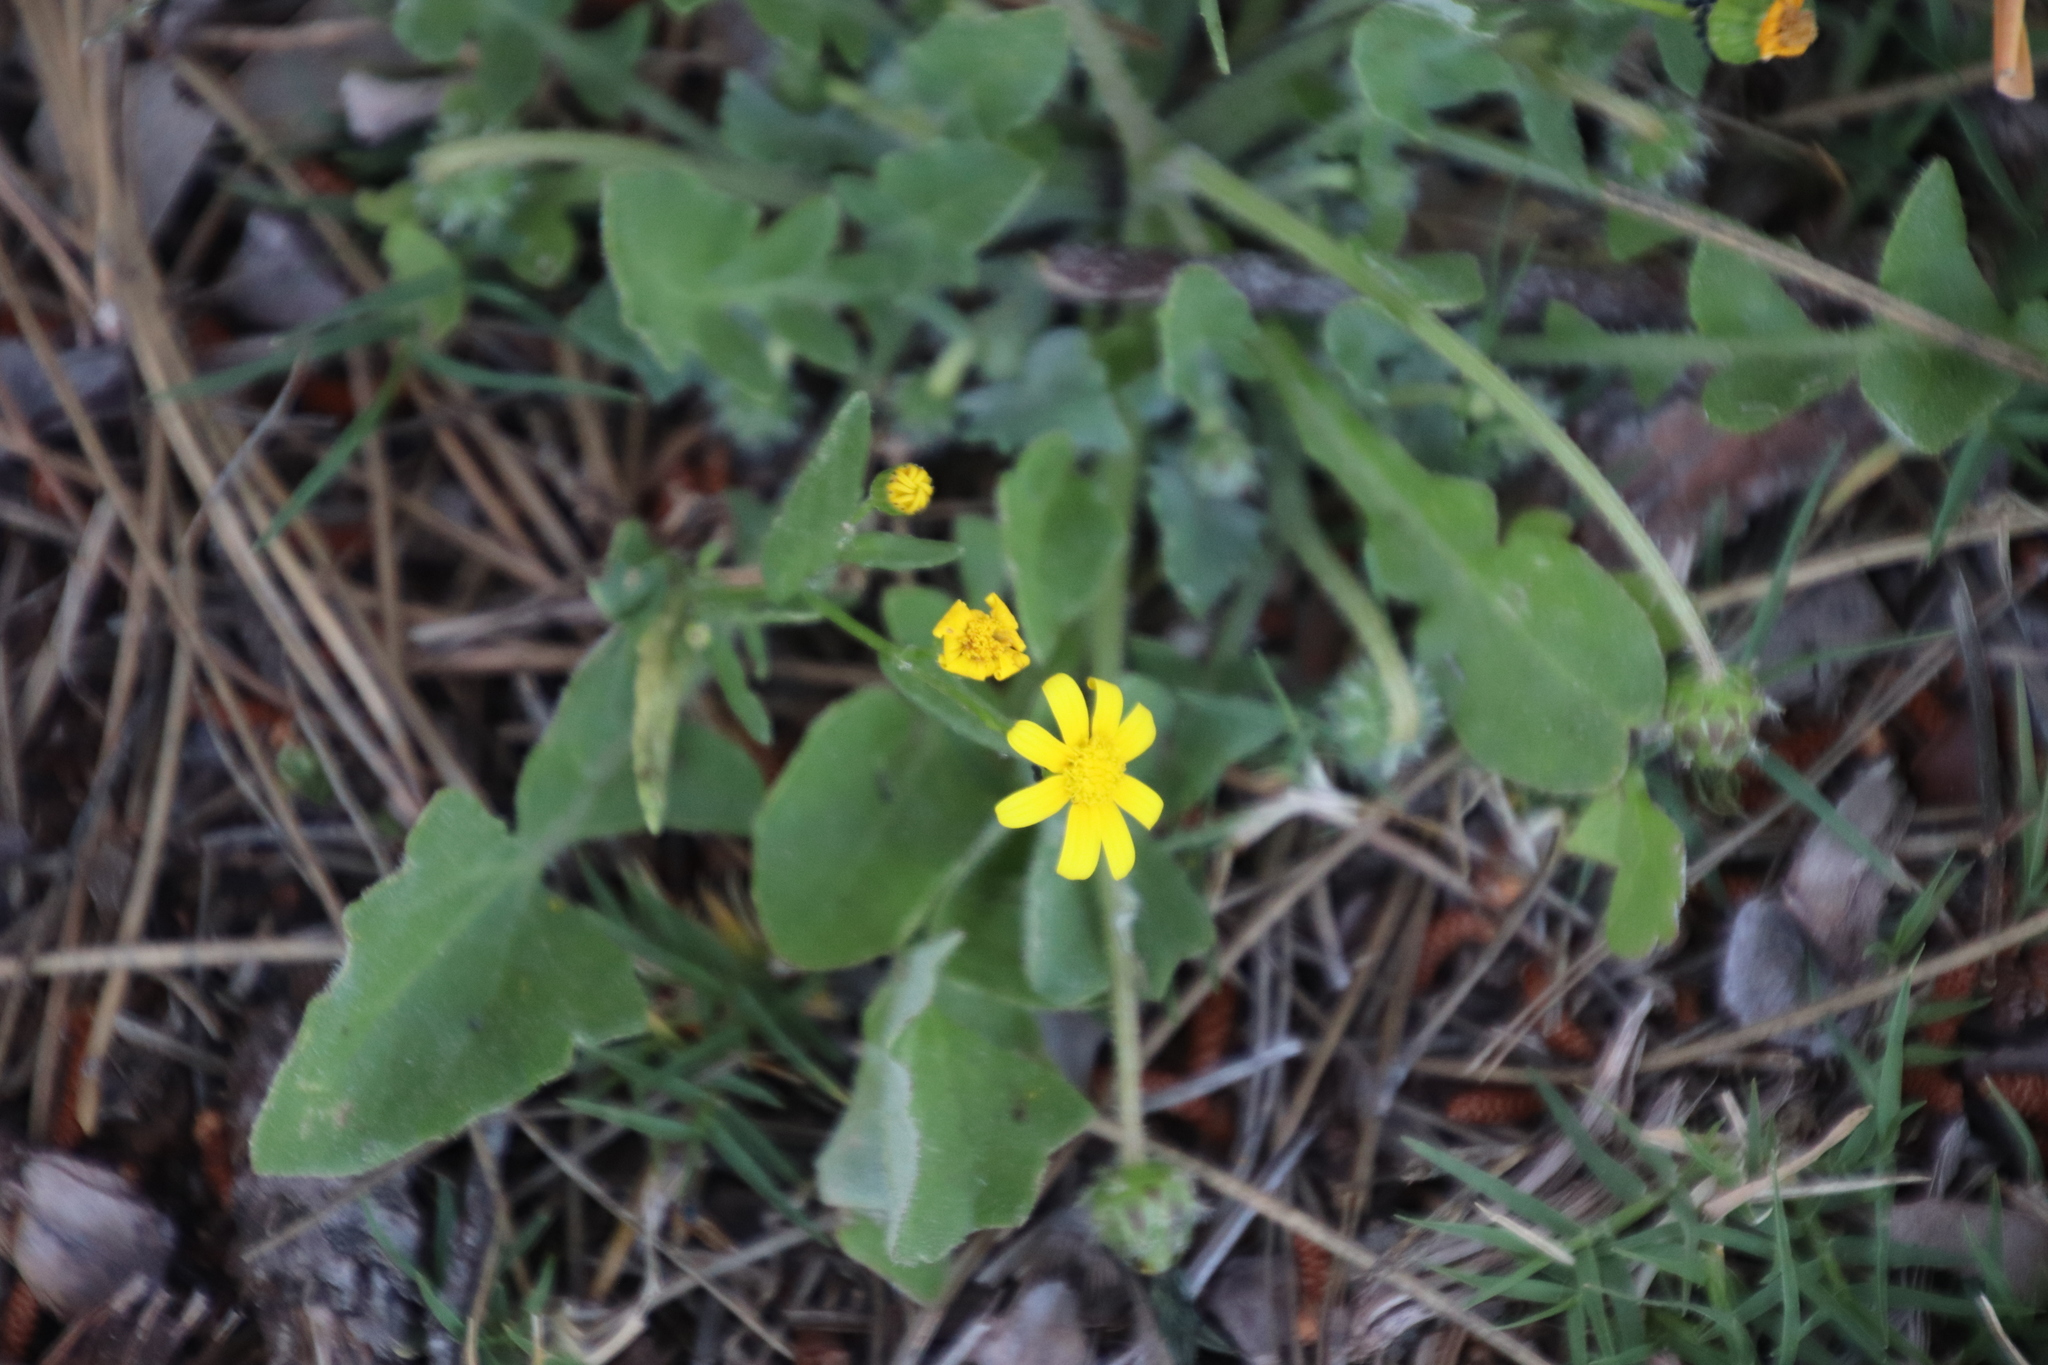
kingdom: Plantae
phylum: Tracheophyta
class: Magnoliopsida
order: Asterales
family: Asteraceae
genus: Senecio
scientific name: Senecio littoreus
